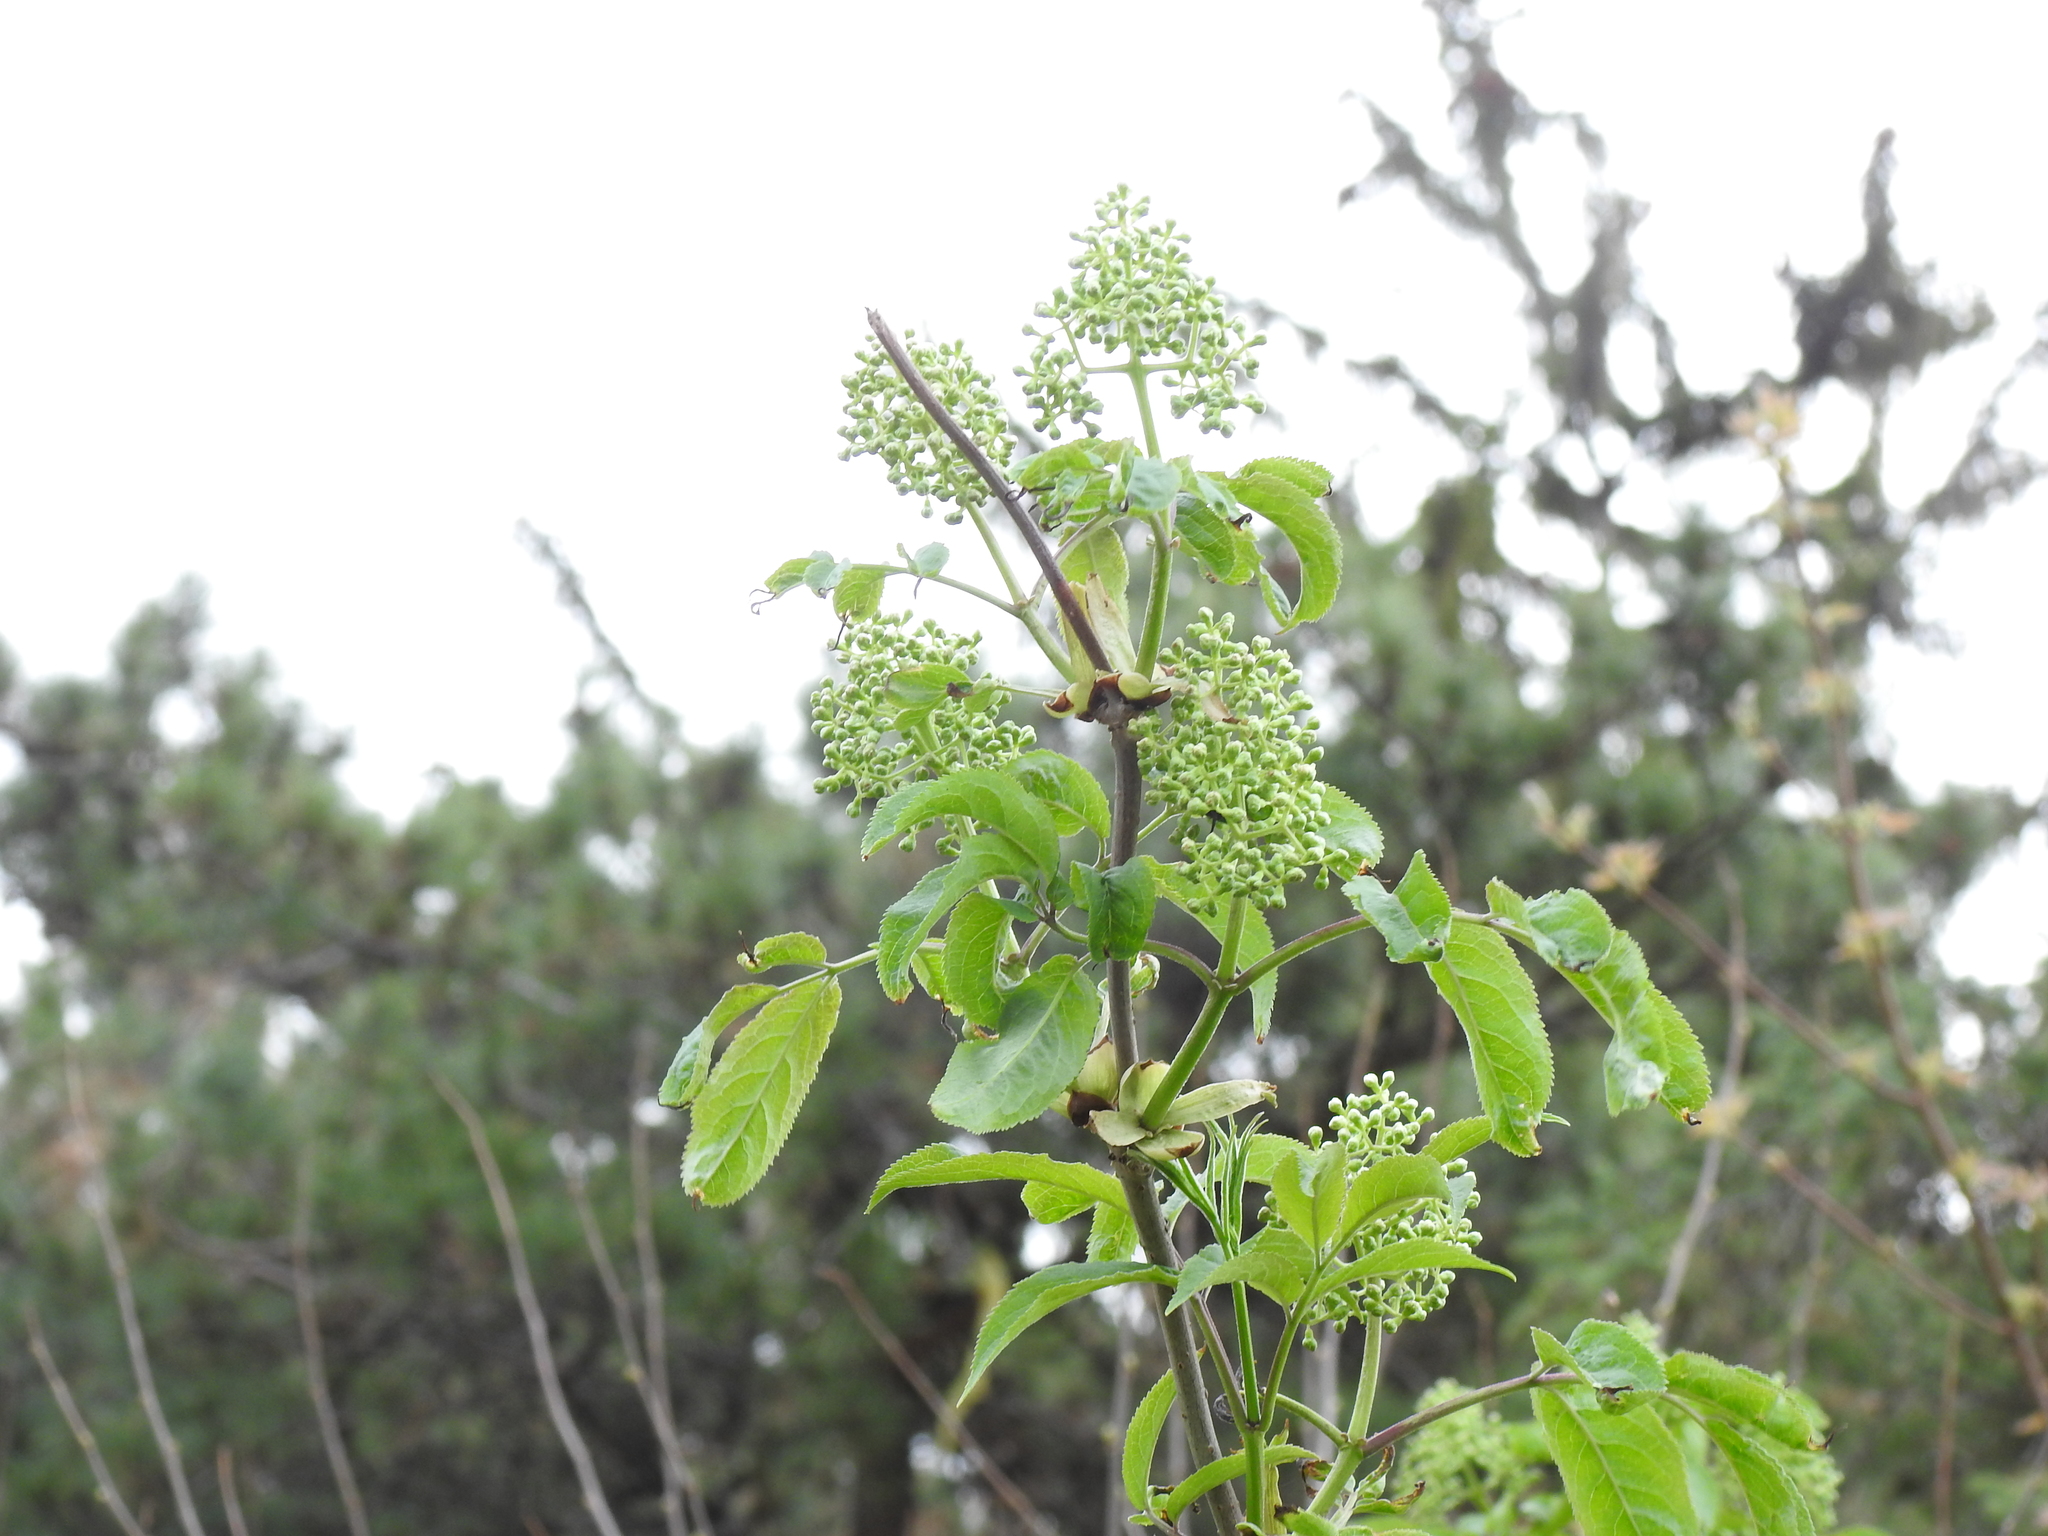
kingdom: Plantae
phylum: Tracheophyta
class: Magnoliopsida
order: Dipsacales
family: Viburnaceae
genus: Sambucus
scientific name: Sambucus racemosa
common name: Red-berried elder
